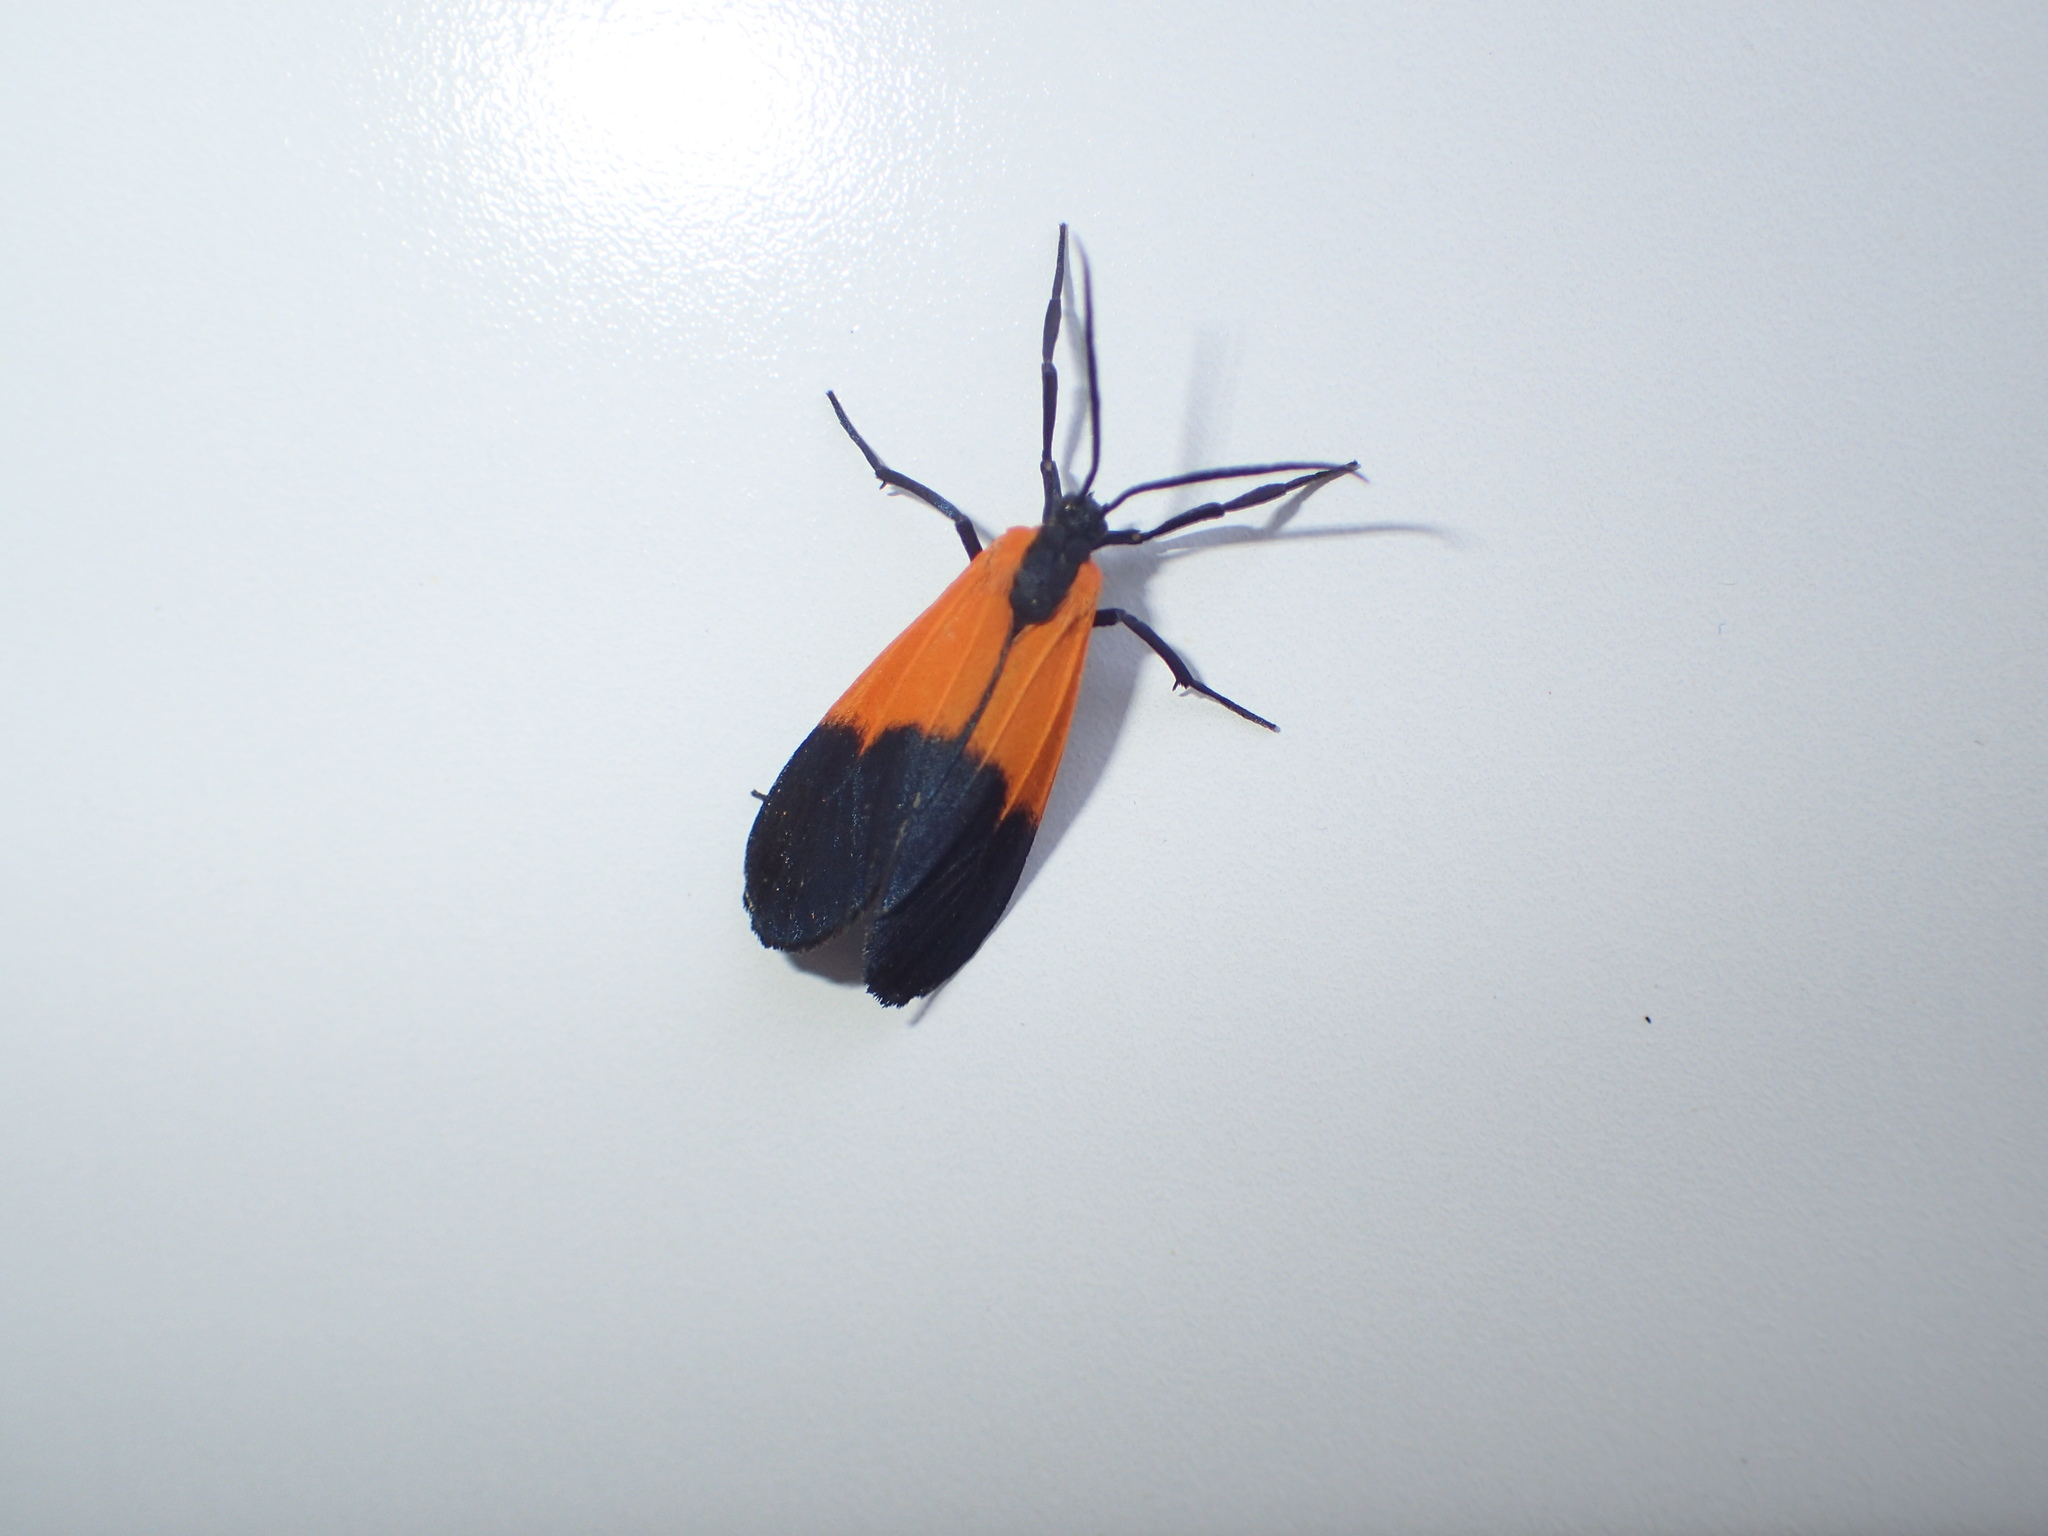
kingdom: Animalia
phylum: Arthropoda
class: Insecta
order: Lepidoptera
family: Erebidae
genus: Lycomorpha
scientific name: Lycomorpha pholus
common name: Black-and-yellow lichen moth
